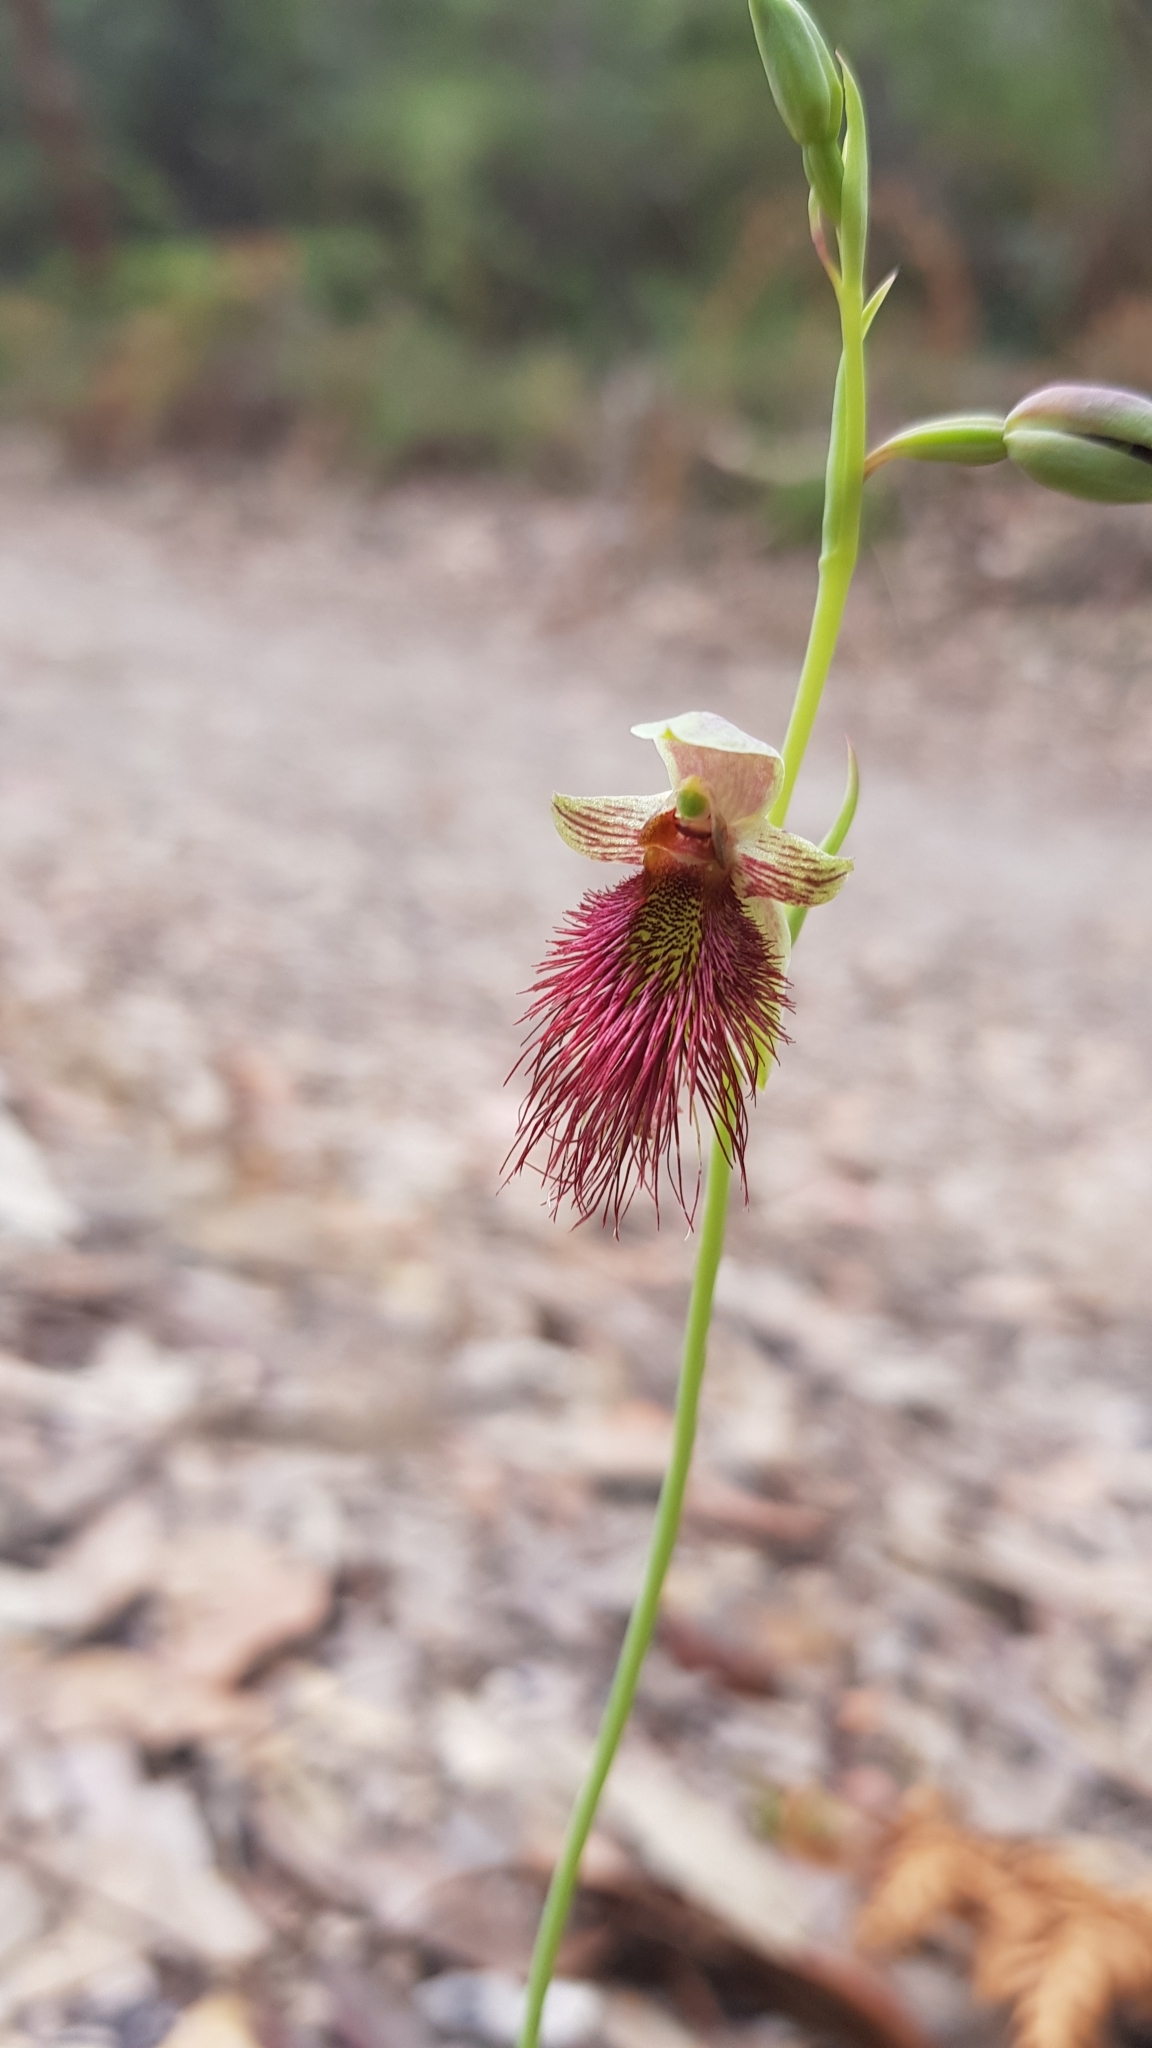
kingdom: Plantae
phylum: Tracheophyta
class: Liliopsida
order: Asparagales
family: Orchidaceae
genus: Calochilus
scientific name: Calochilus paludosus
